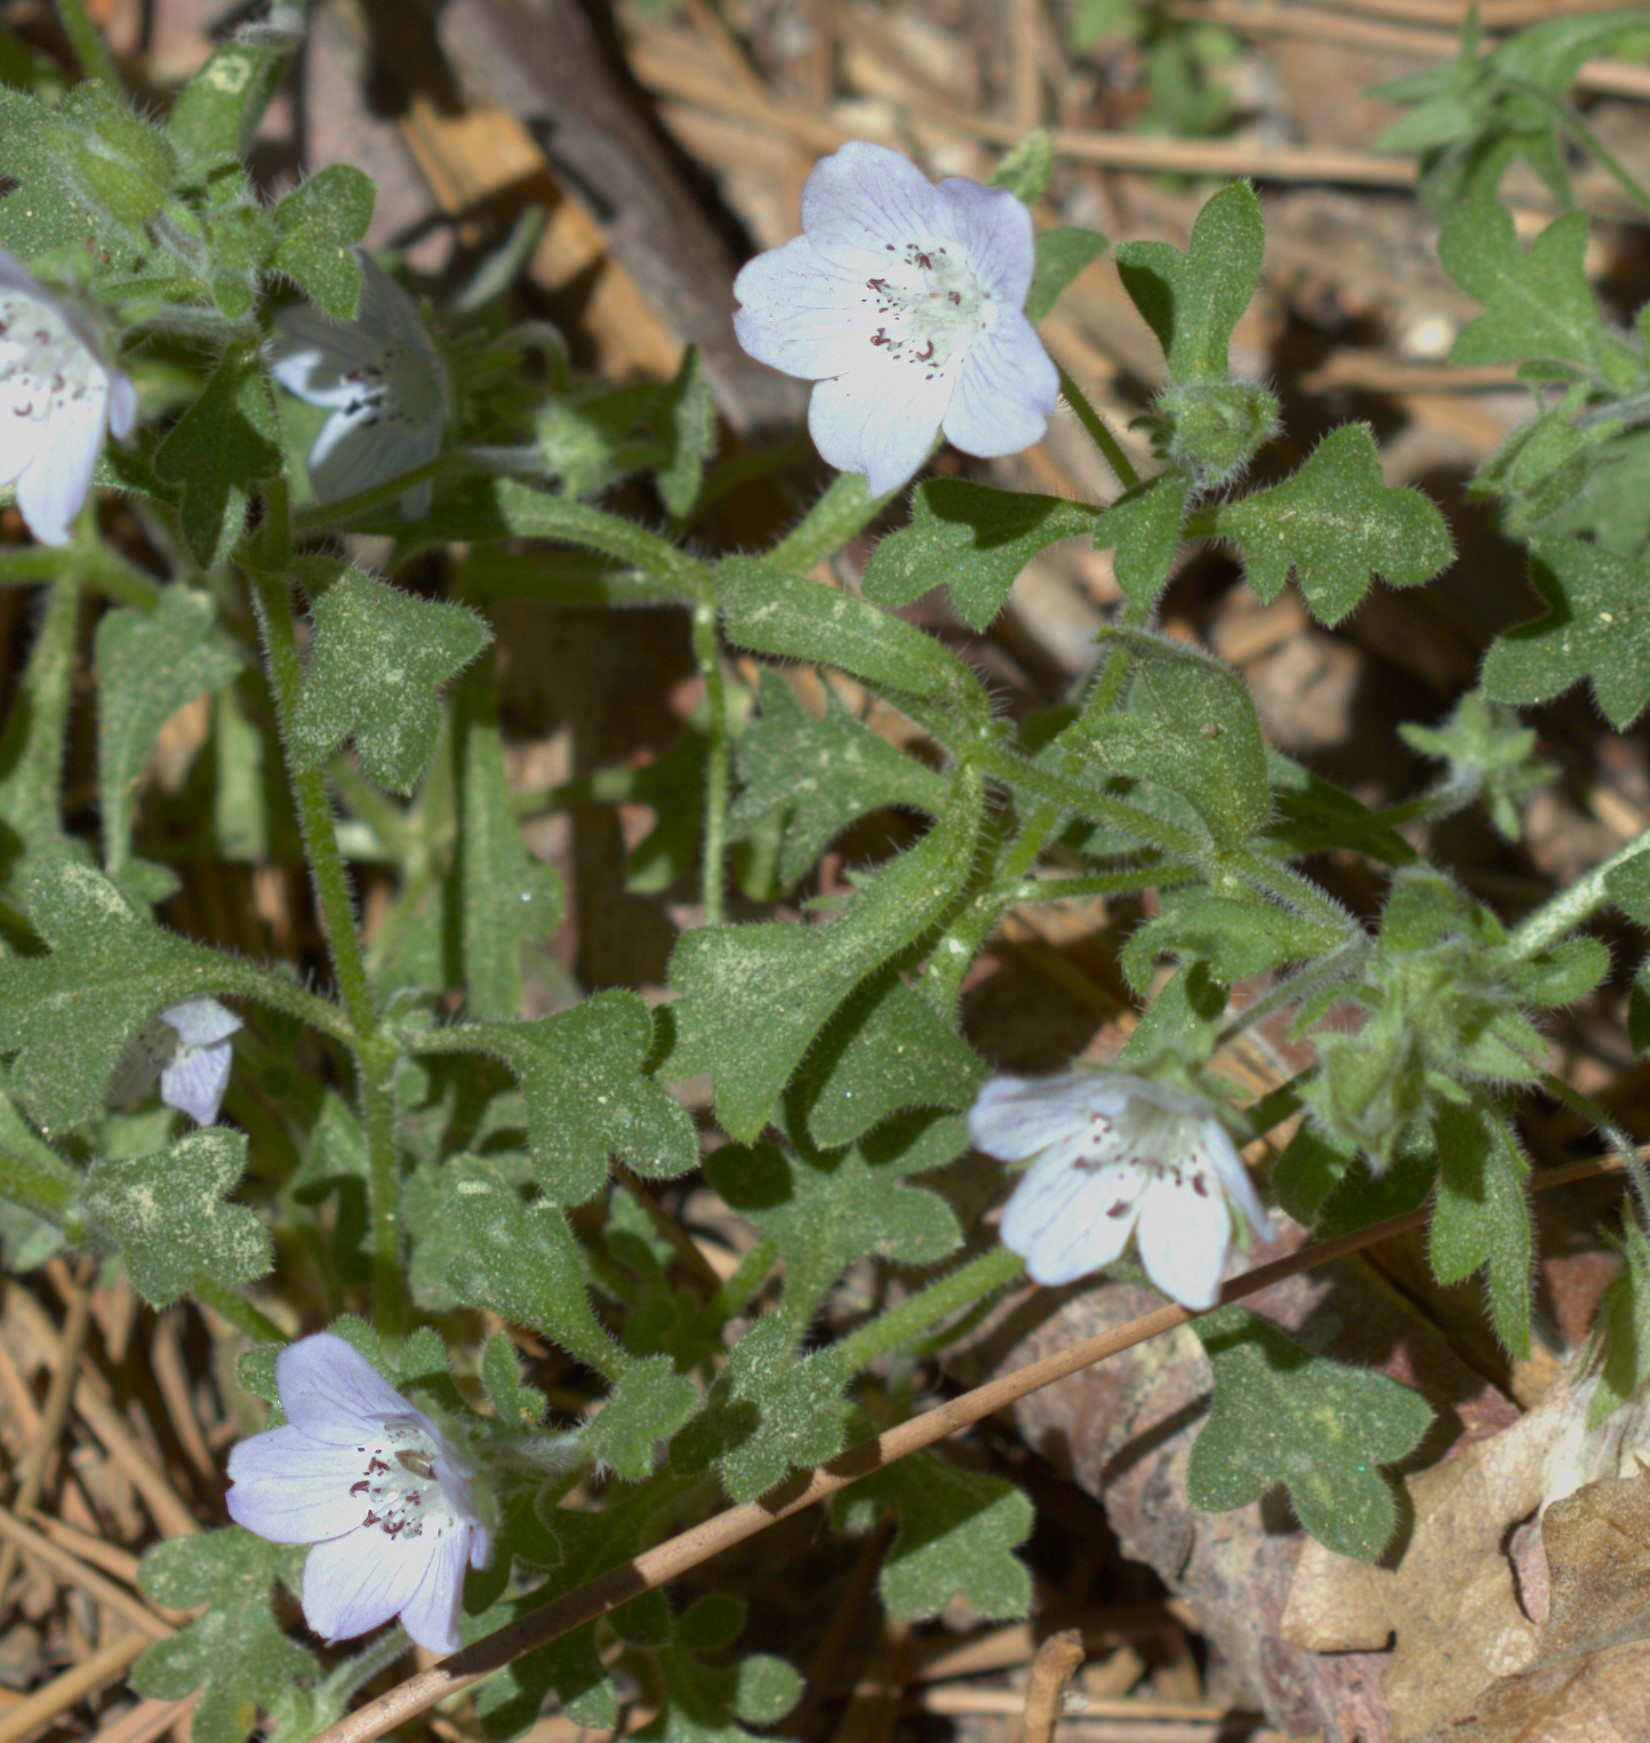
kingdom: Plantae
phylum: Tracheophyta
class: Magnoliopsida
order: Boraginales
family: Hydrophyllaceae
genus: Nemophila
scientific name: Nemophila menziesii
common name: Baby's-blue-eyes
